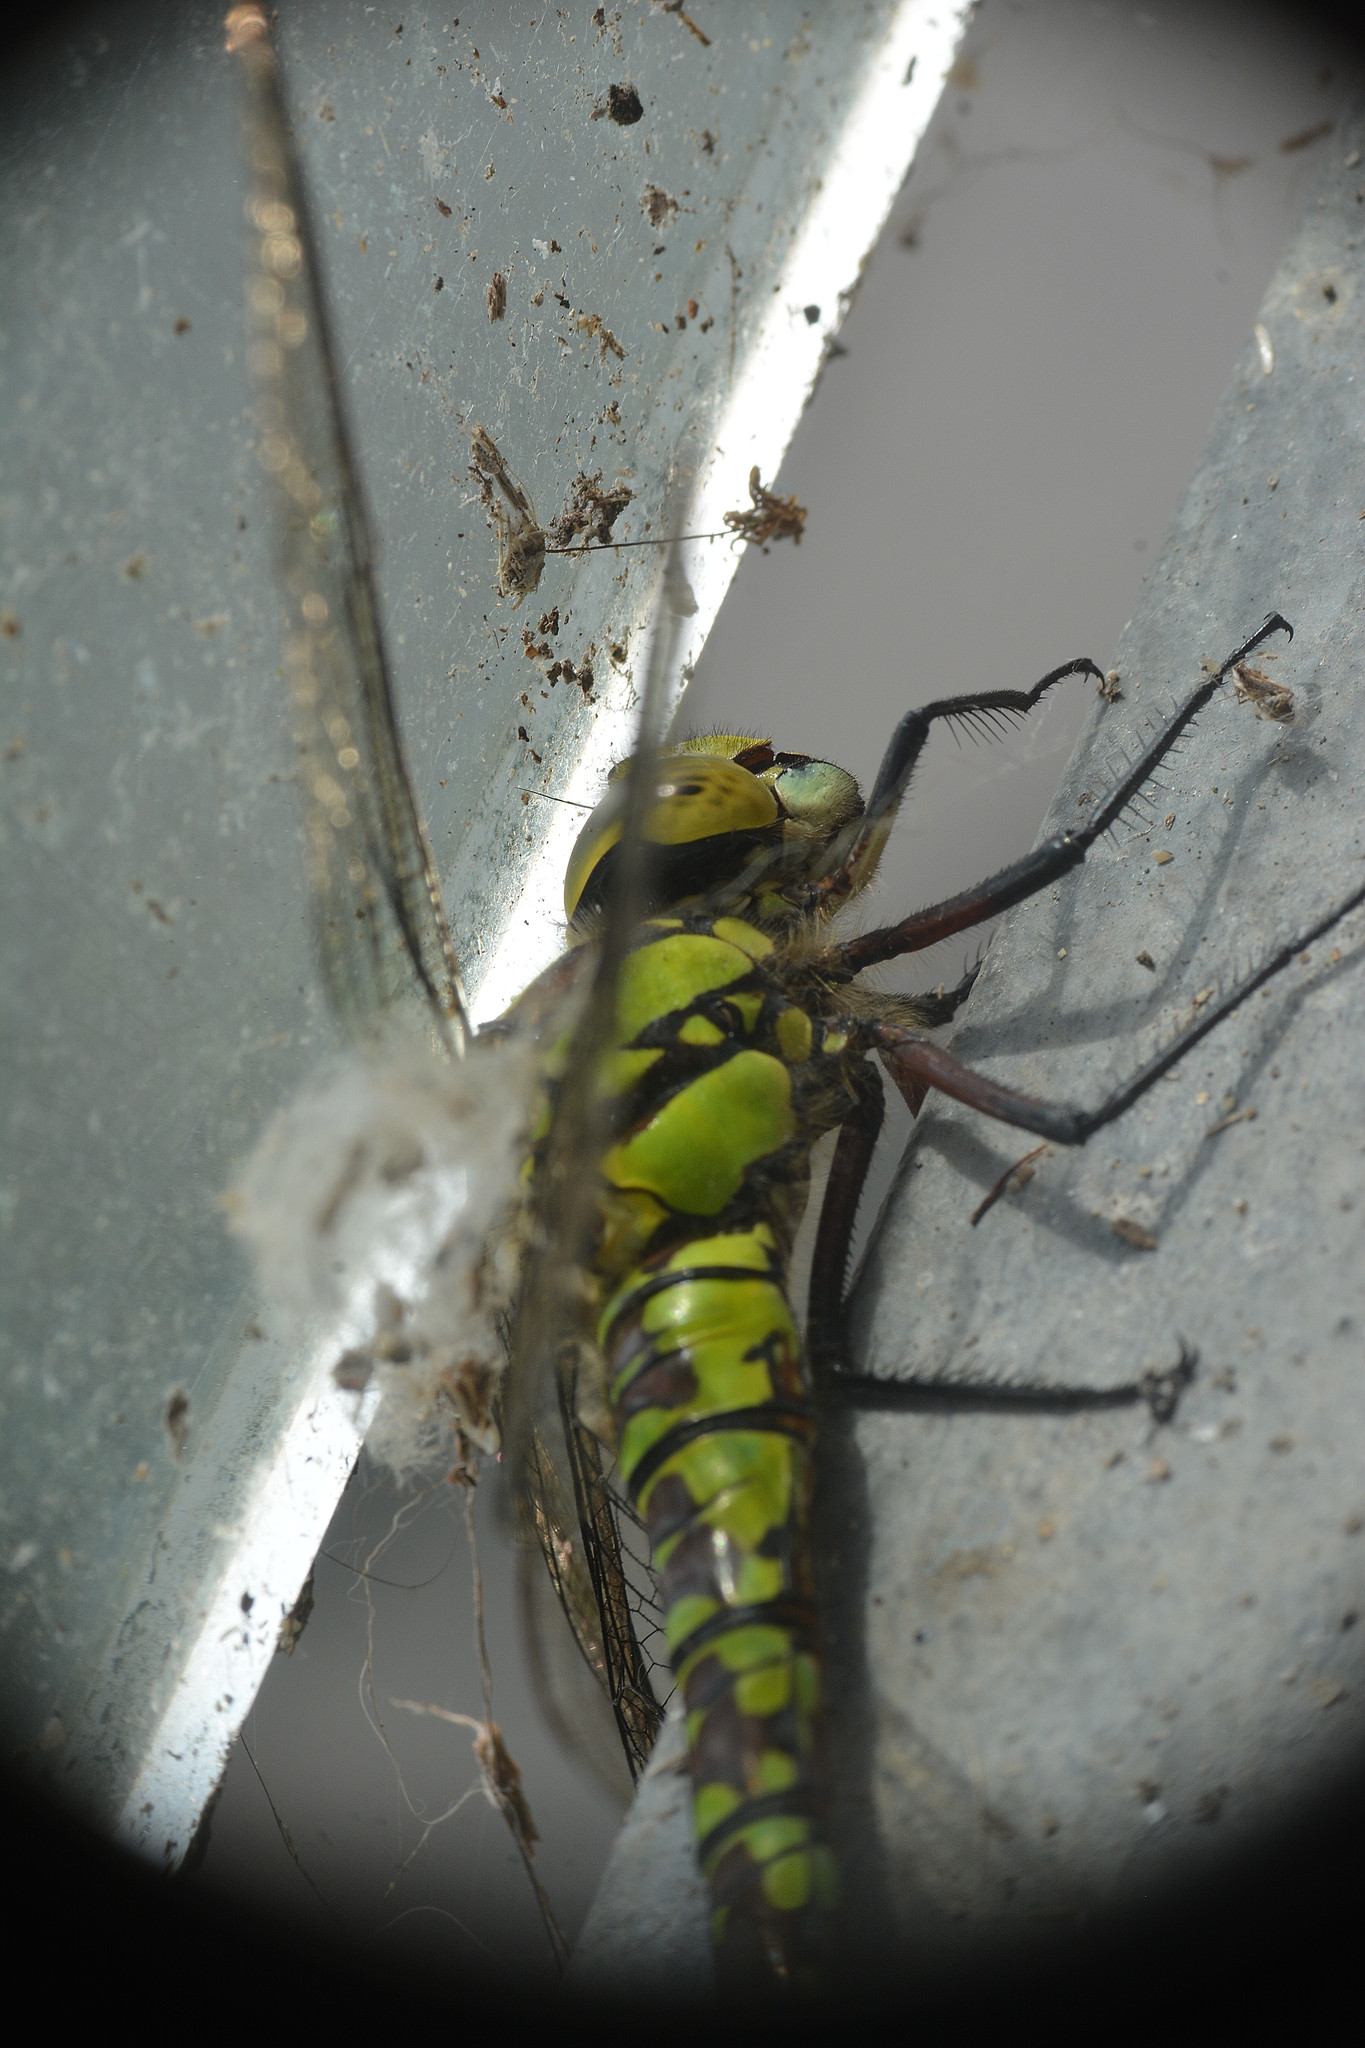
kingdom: Animalia
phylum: Arthropoda
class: Insecta
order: Odonata
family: Aeshnidae
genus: Aeshna
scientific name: Aeshna cyanea
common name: Southern hawker
